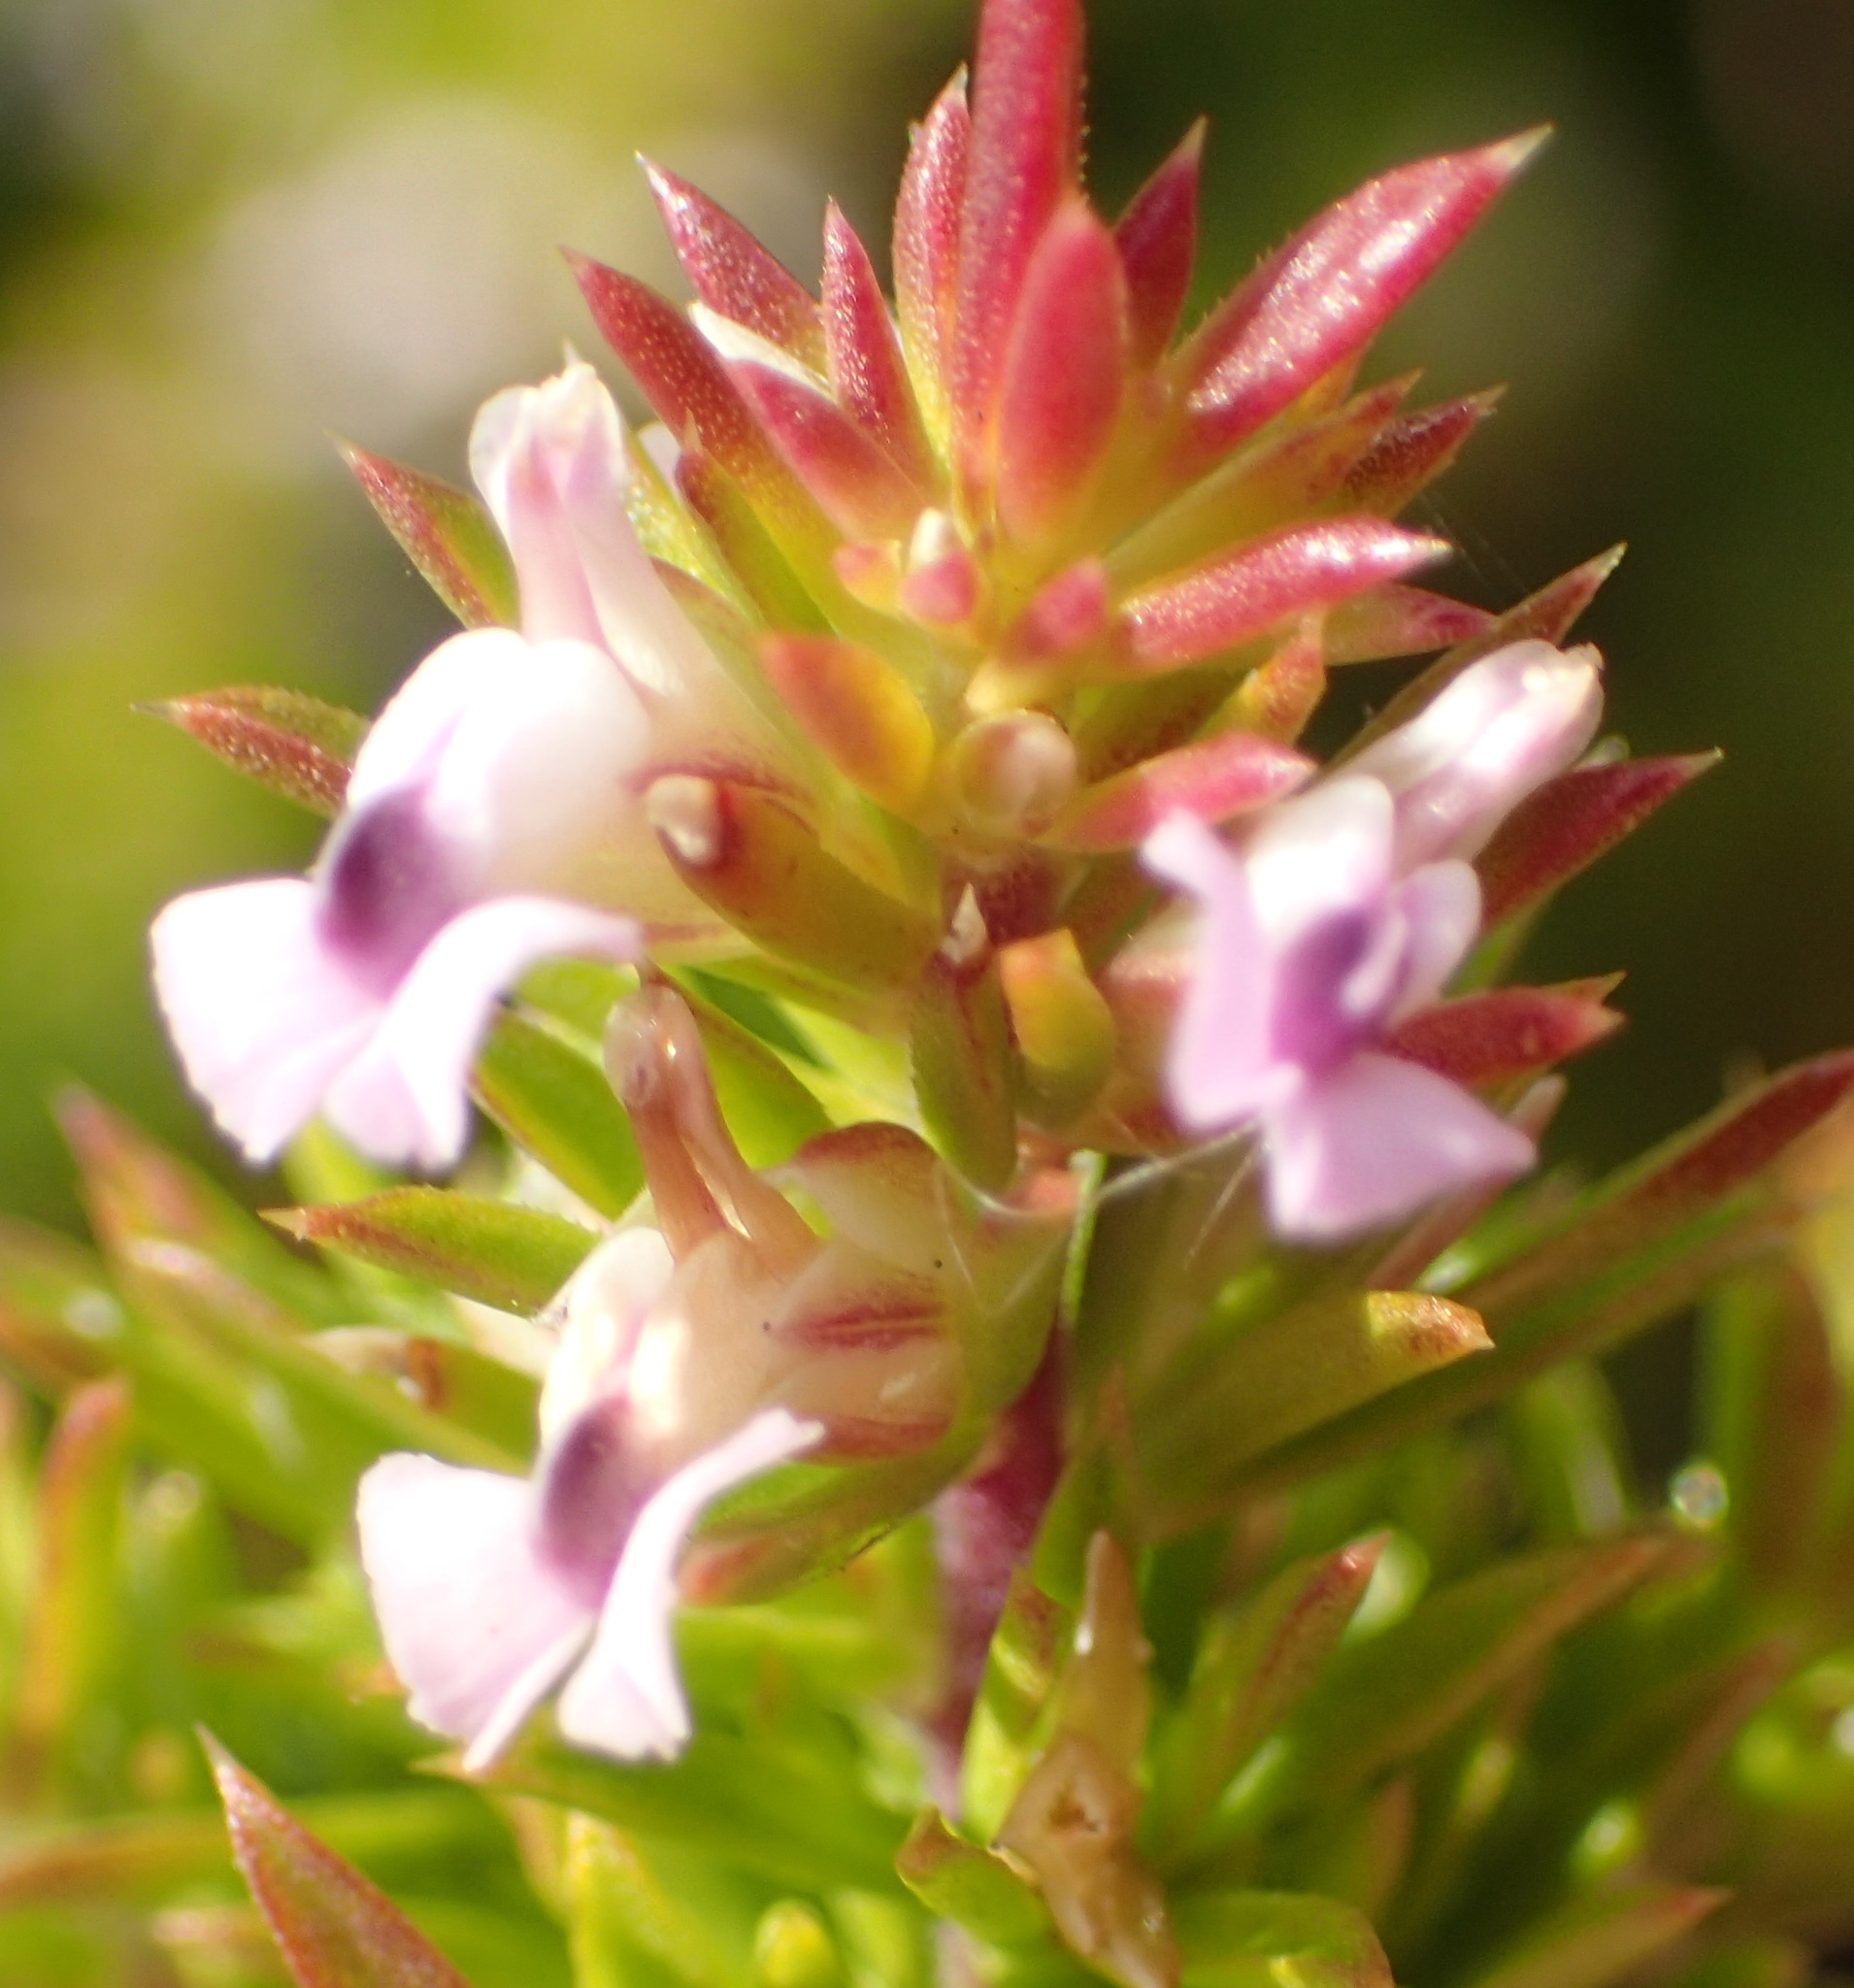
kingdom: Plantae
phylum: Tracheophyta
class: Magnoliopsida
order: Fabales
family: Polygalaceae
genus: Muraltia
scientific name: Muraltia ericifolia
